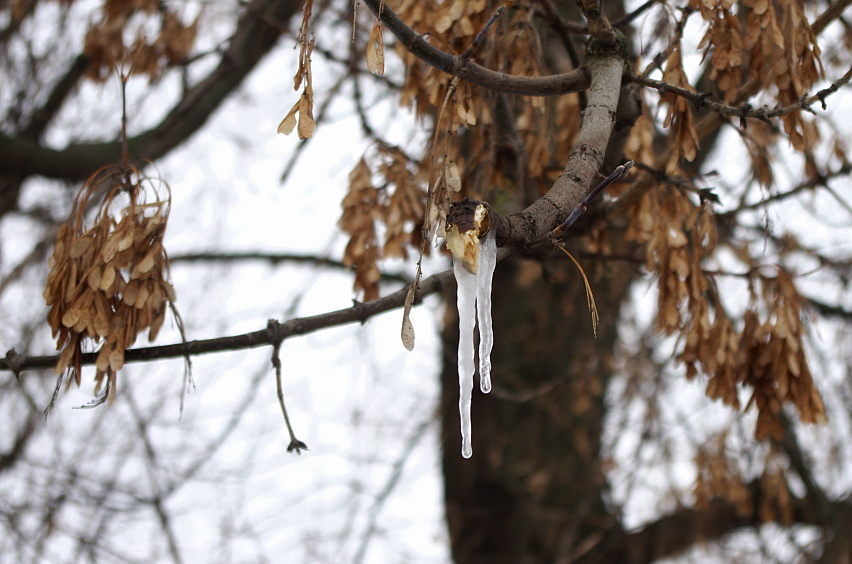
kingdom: Plantae
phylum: Tracheophyta
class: Magnoliopsida
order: Sapindales
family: Sapindaceae
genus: Acer
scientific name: Acer negundo
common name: Ashleaf maple
